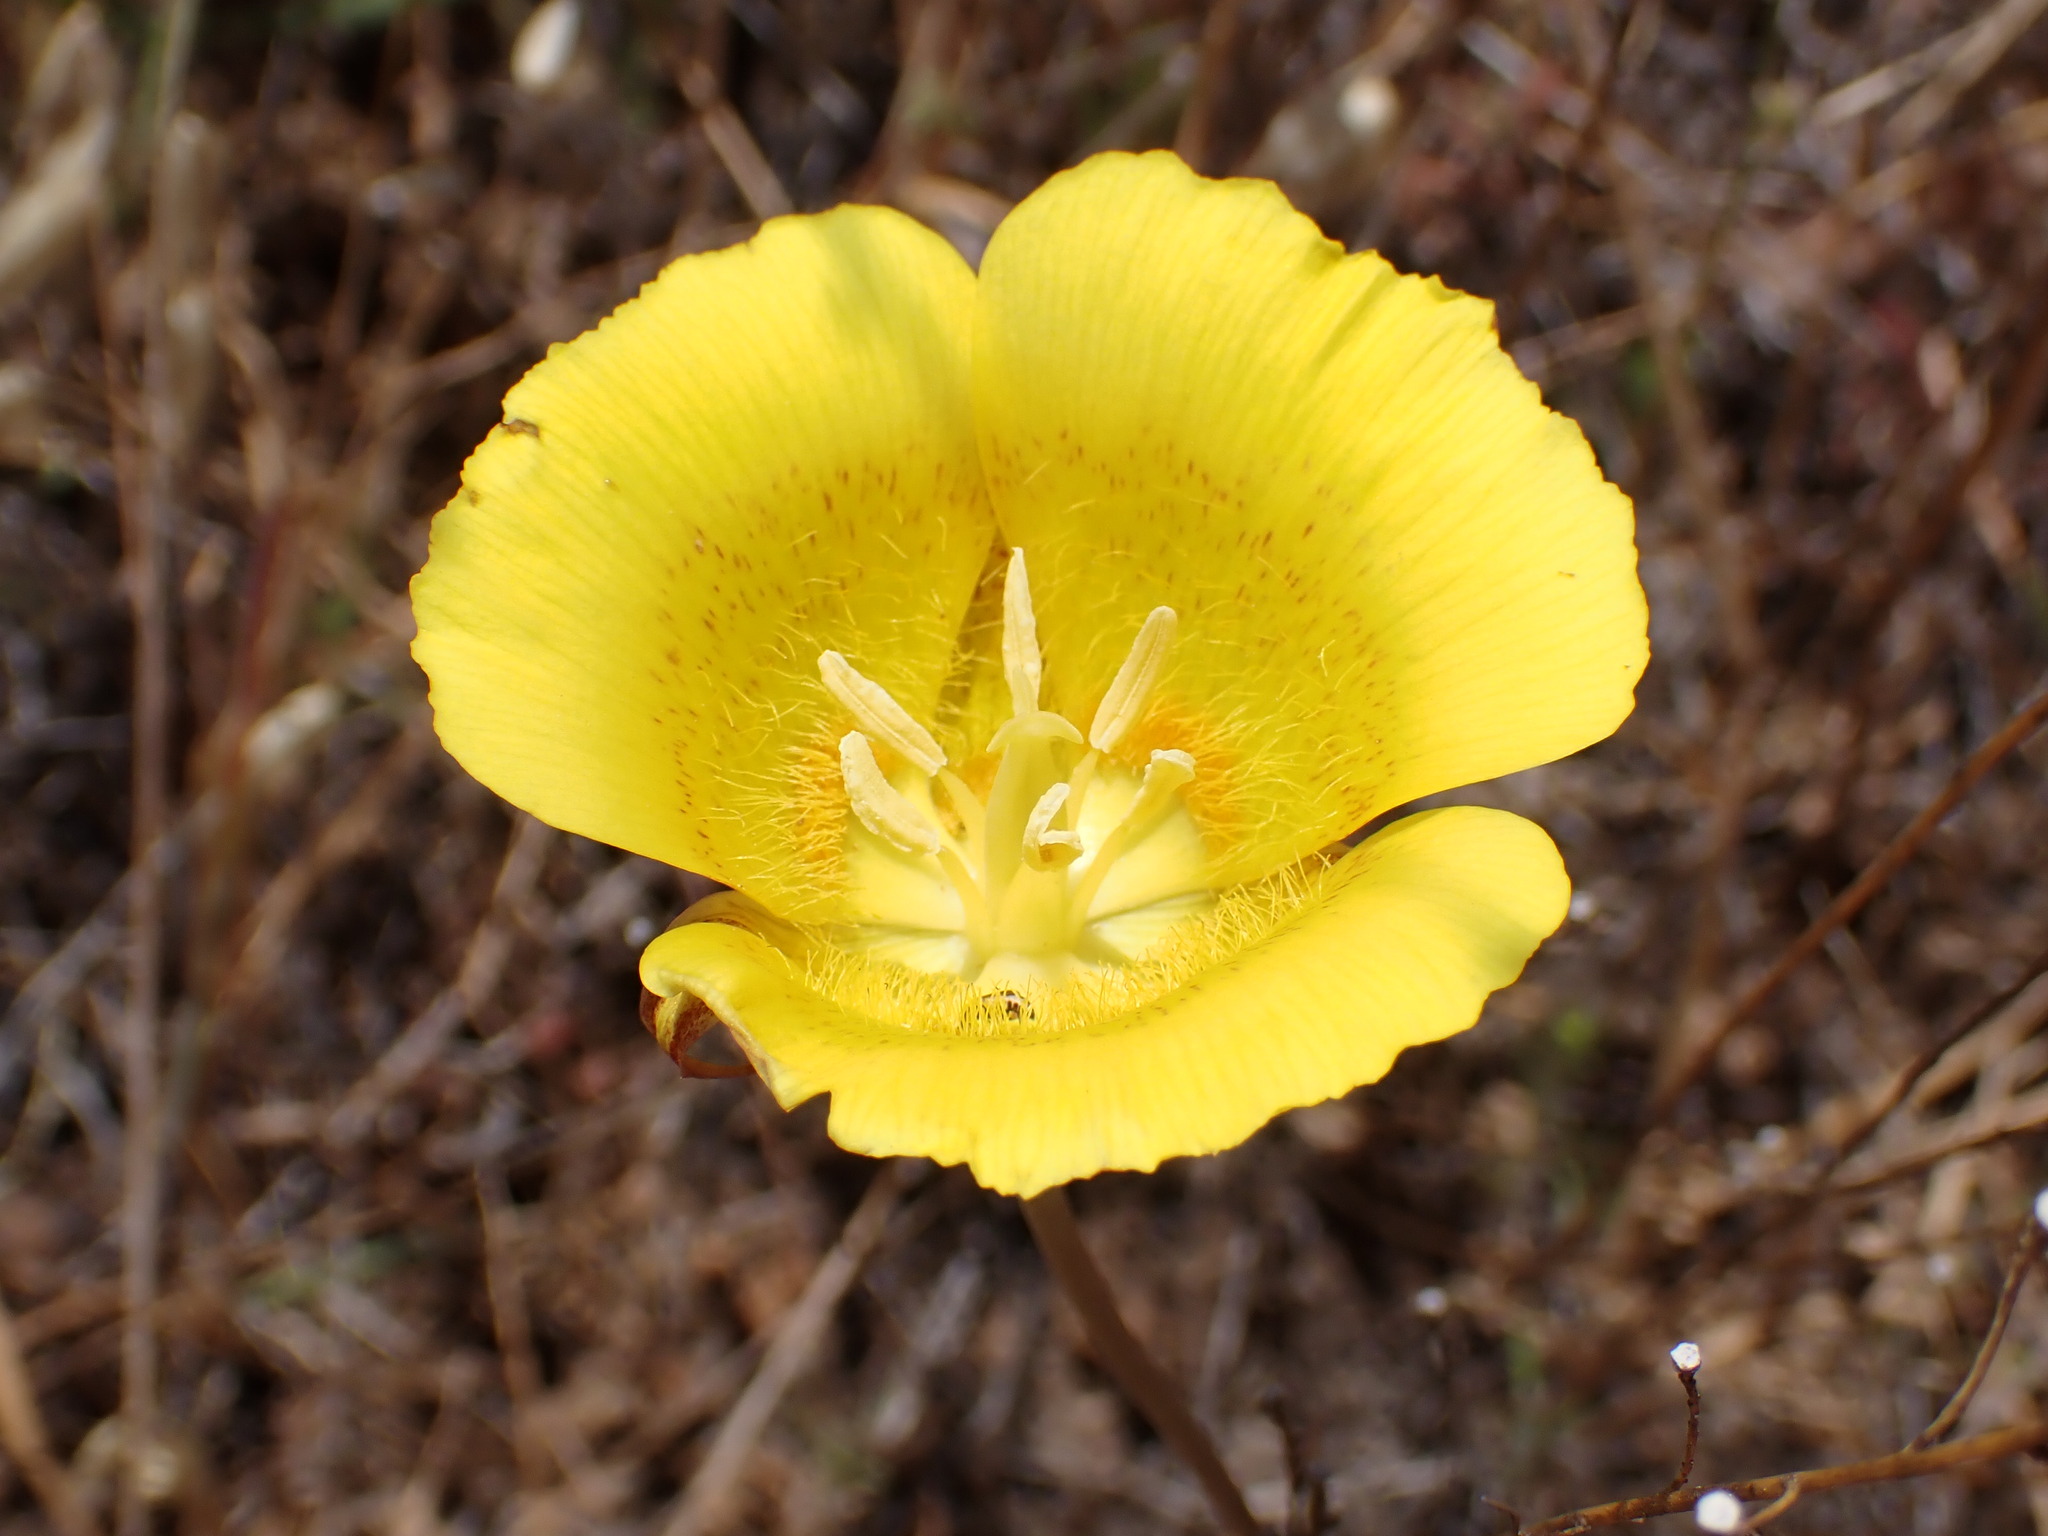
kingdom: Plantae
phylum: Tracheophyta
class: Liliopsida
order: Liliales
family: Liliaceae
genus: Calochortus
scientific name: Calochortus luteus
